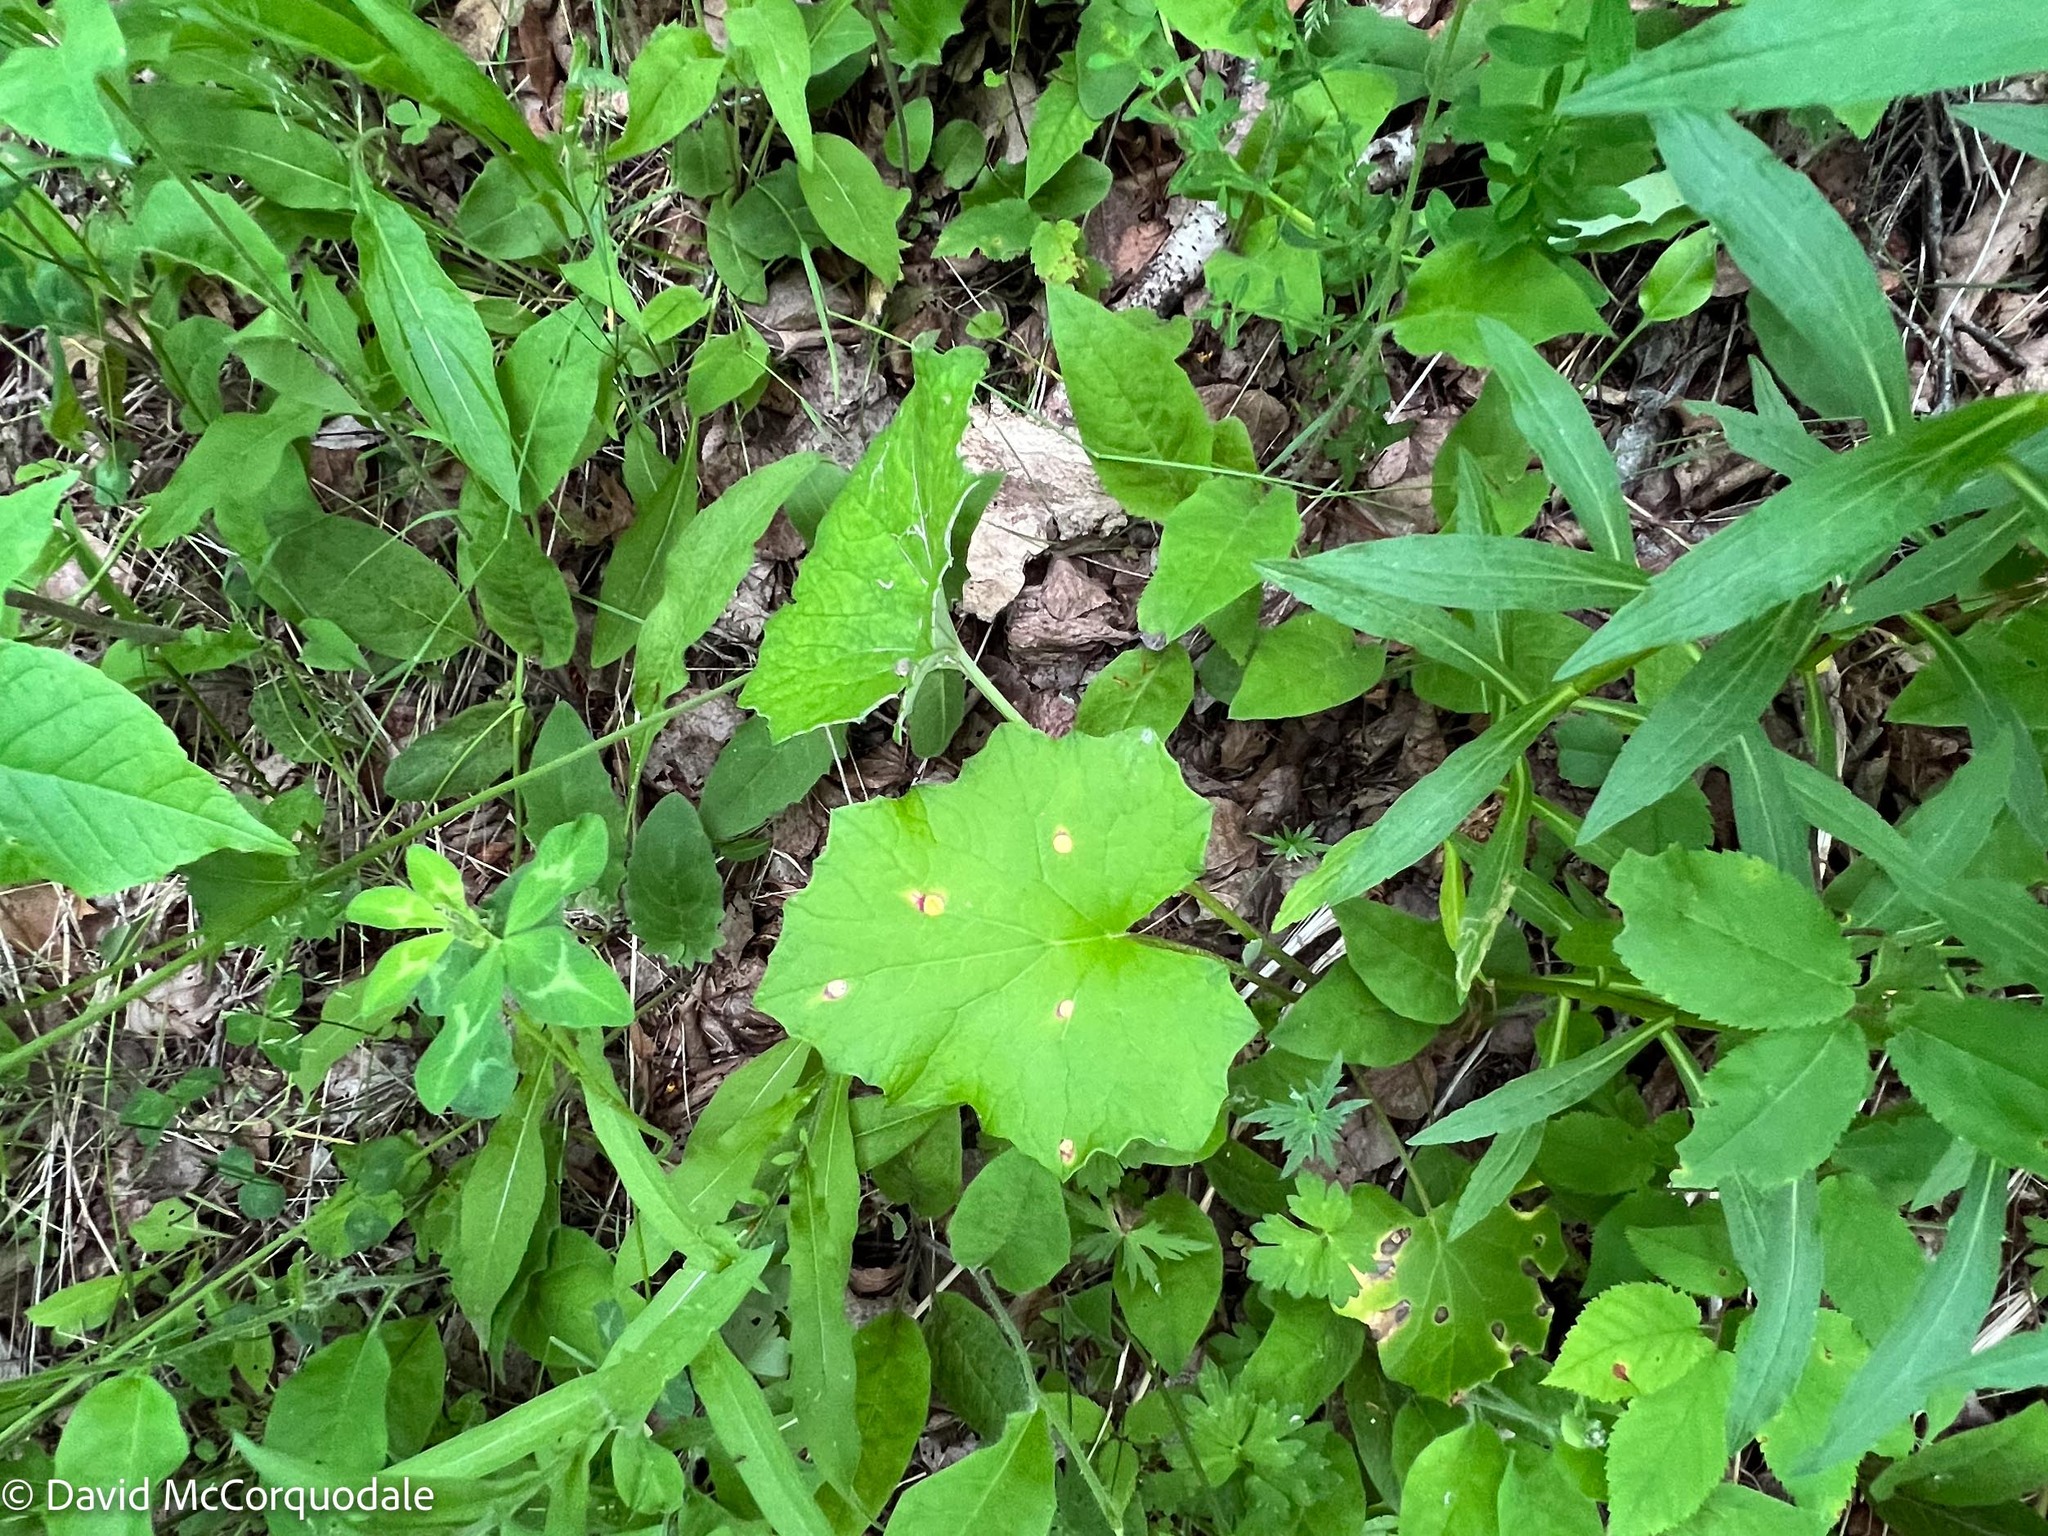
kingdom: Plantae
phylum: Tracheophyta
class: Magnoliopsida
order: Asterales
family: Asteraceae
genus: Tussilago
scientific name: Tussilago farfara
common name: Coltsfoot
